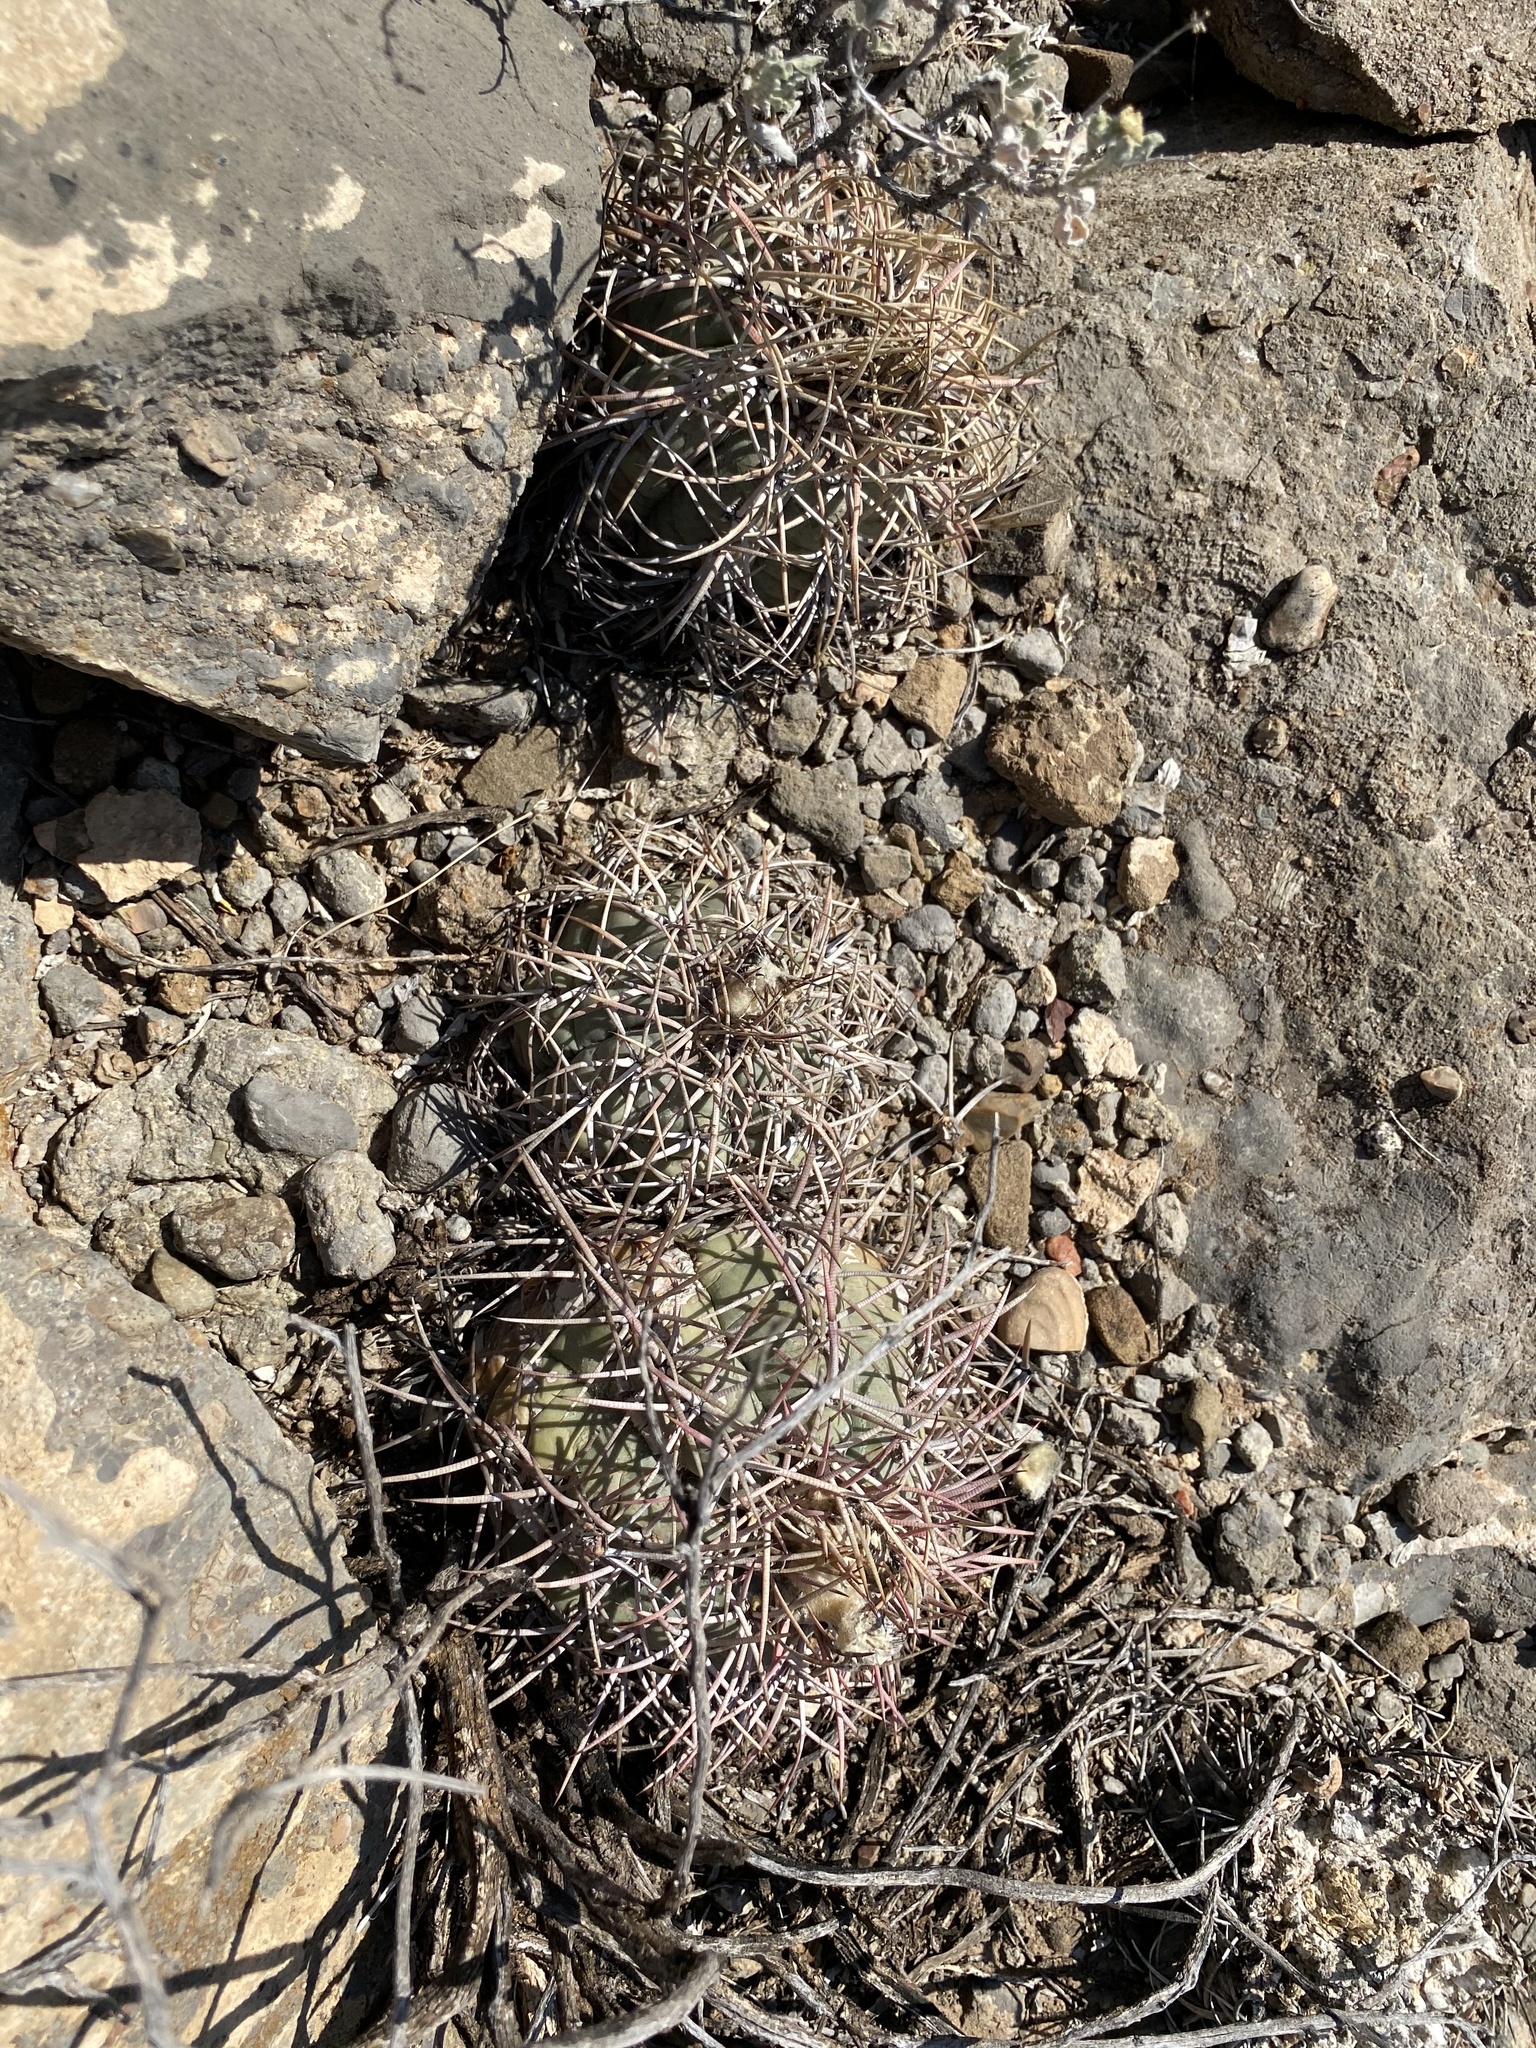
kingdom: Plantae
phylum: Tracheophyta
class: Magnoliopsida
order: Caryophyllales
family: Cactaceae
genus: Echinocactus
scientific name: Echinocactus horizonthalonius
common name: Devilshead
